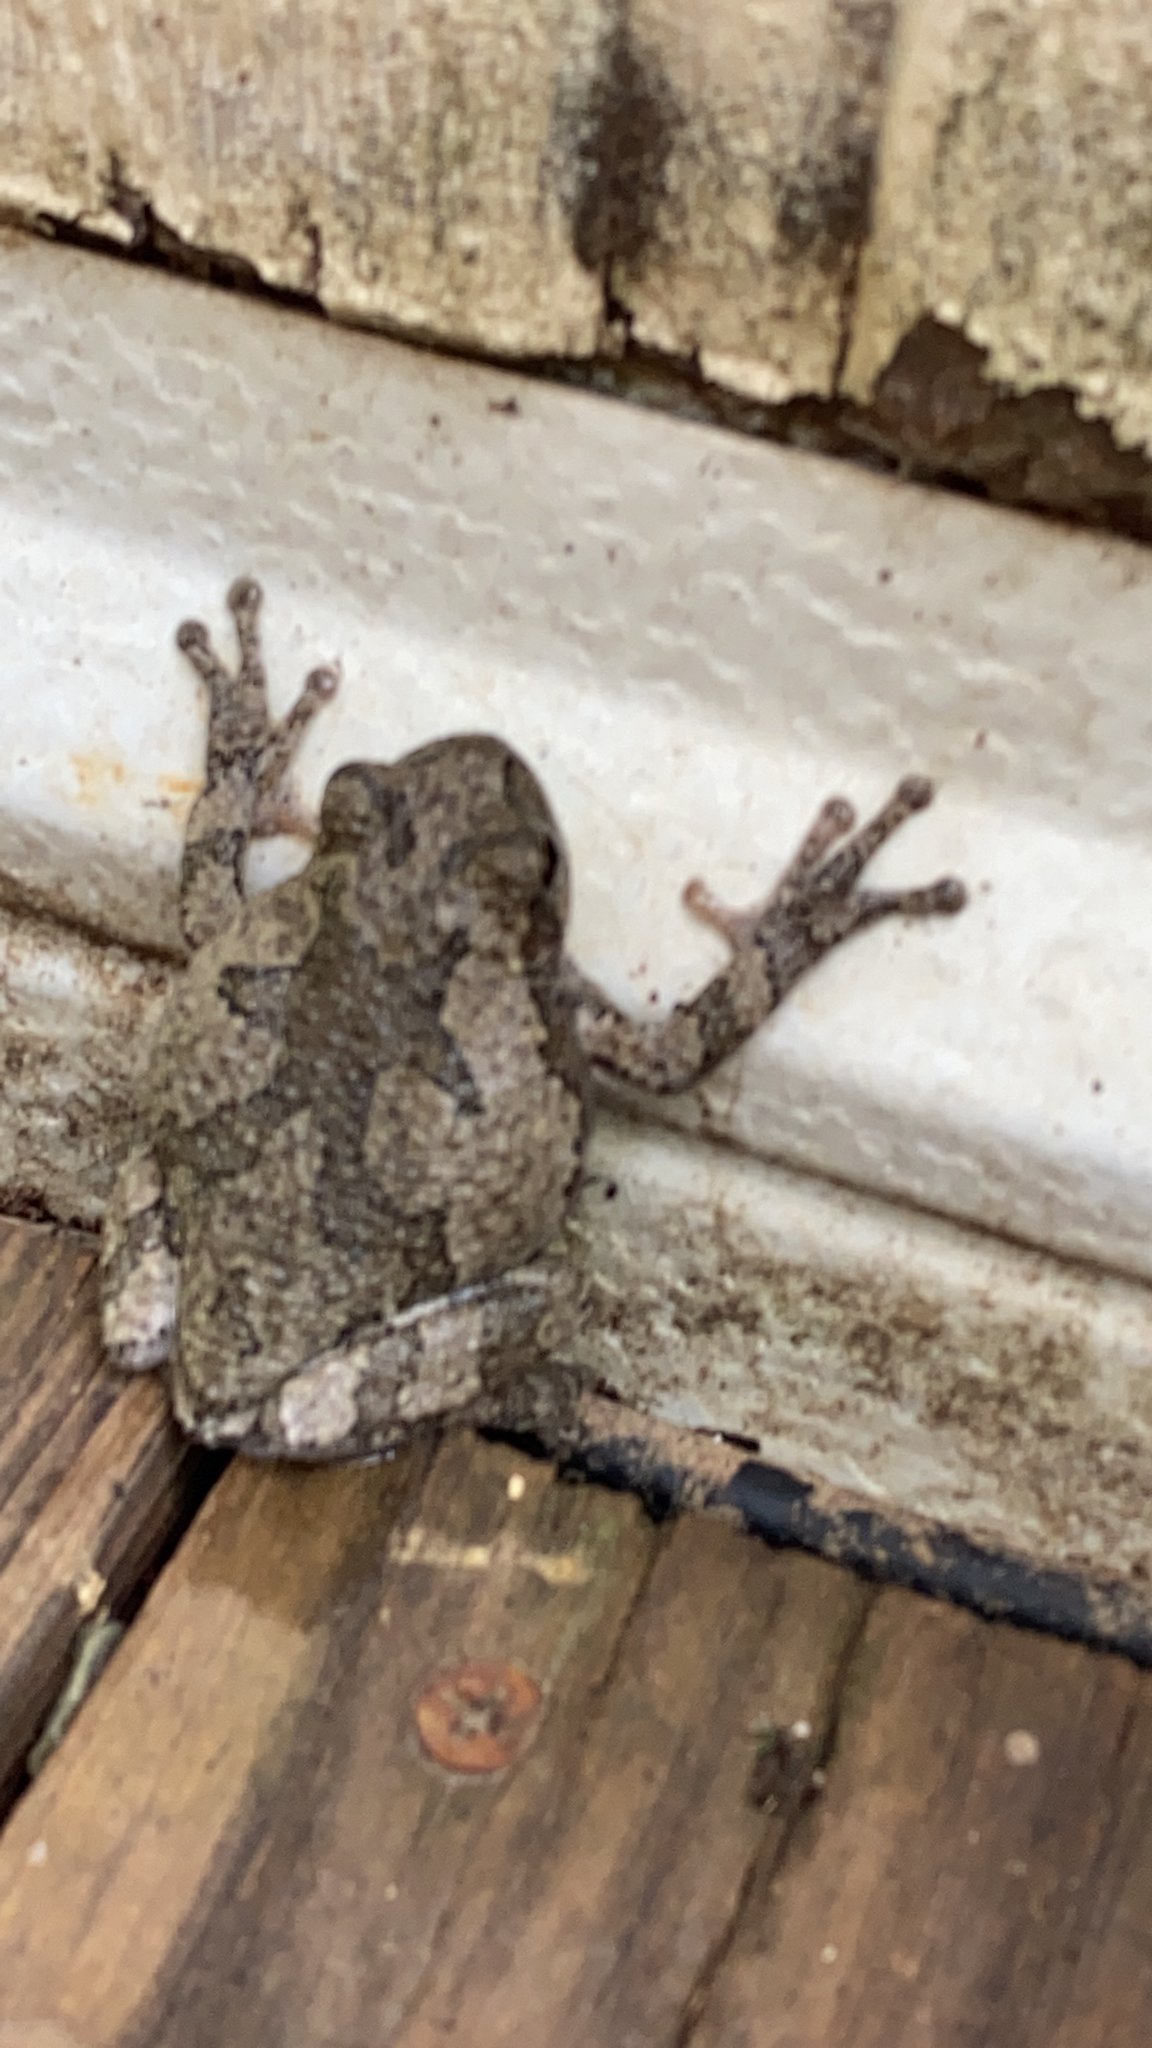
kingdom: Animalia
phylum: Chordata
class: Amphibia
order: Anura
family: Hylidae
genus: Hyla
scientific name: Hyla
